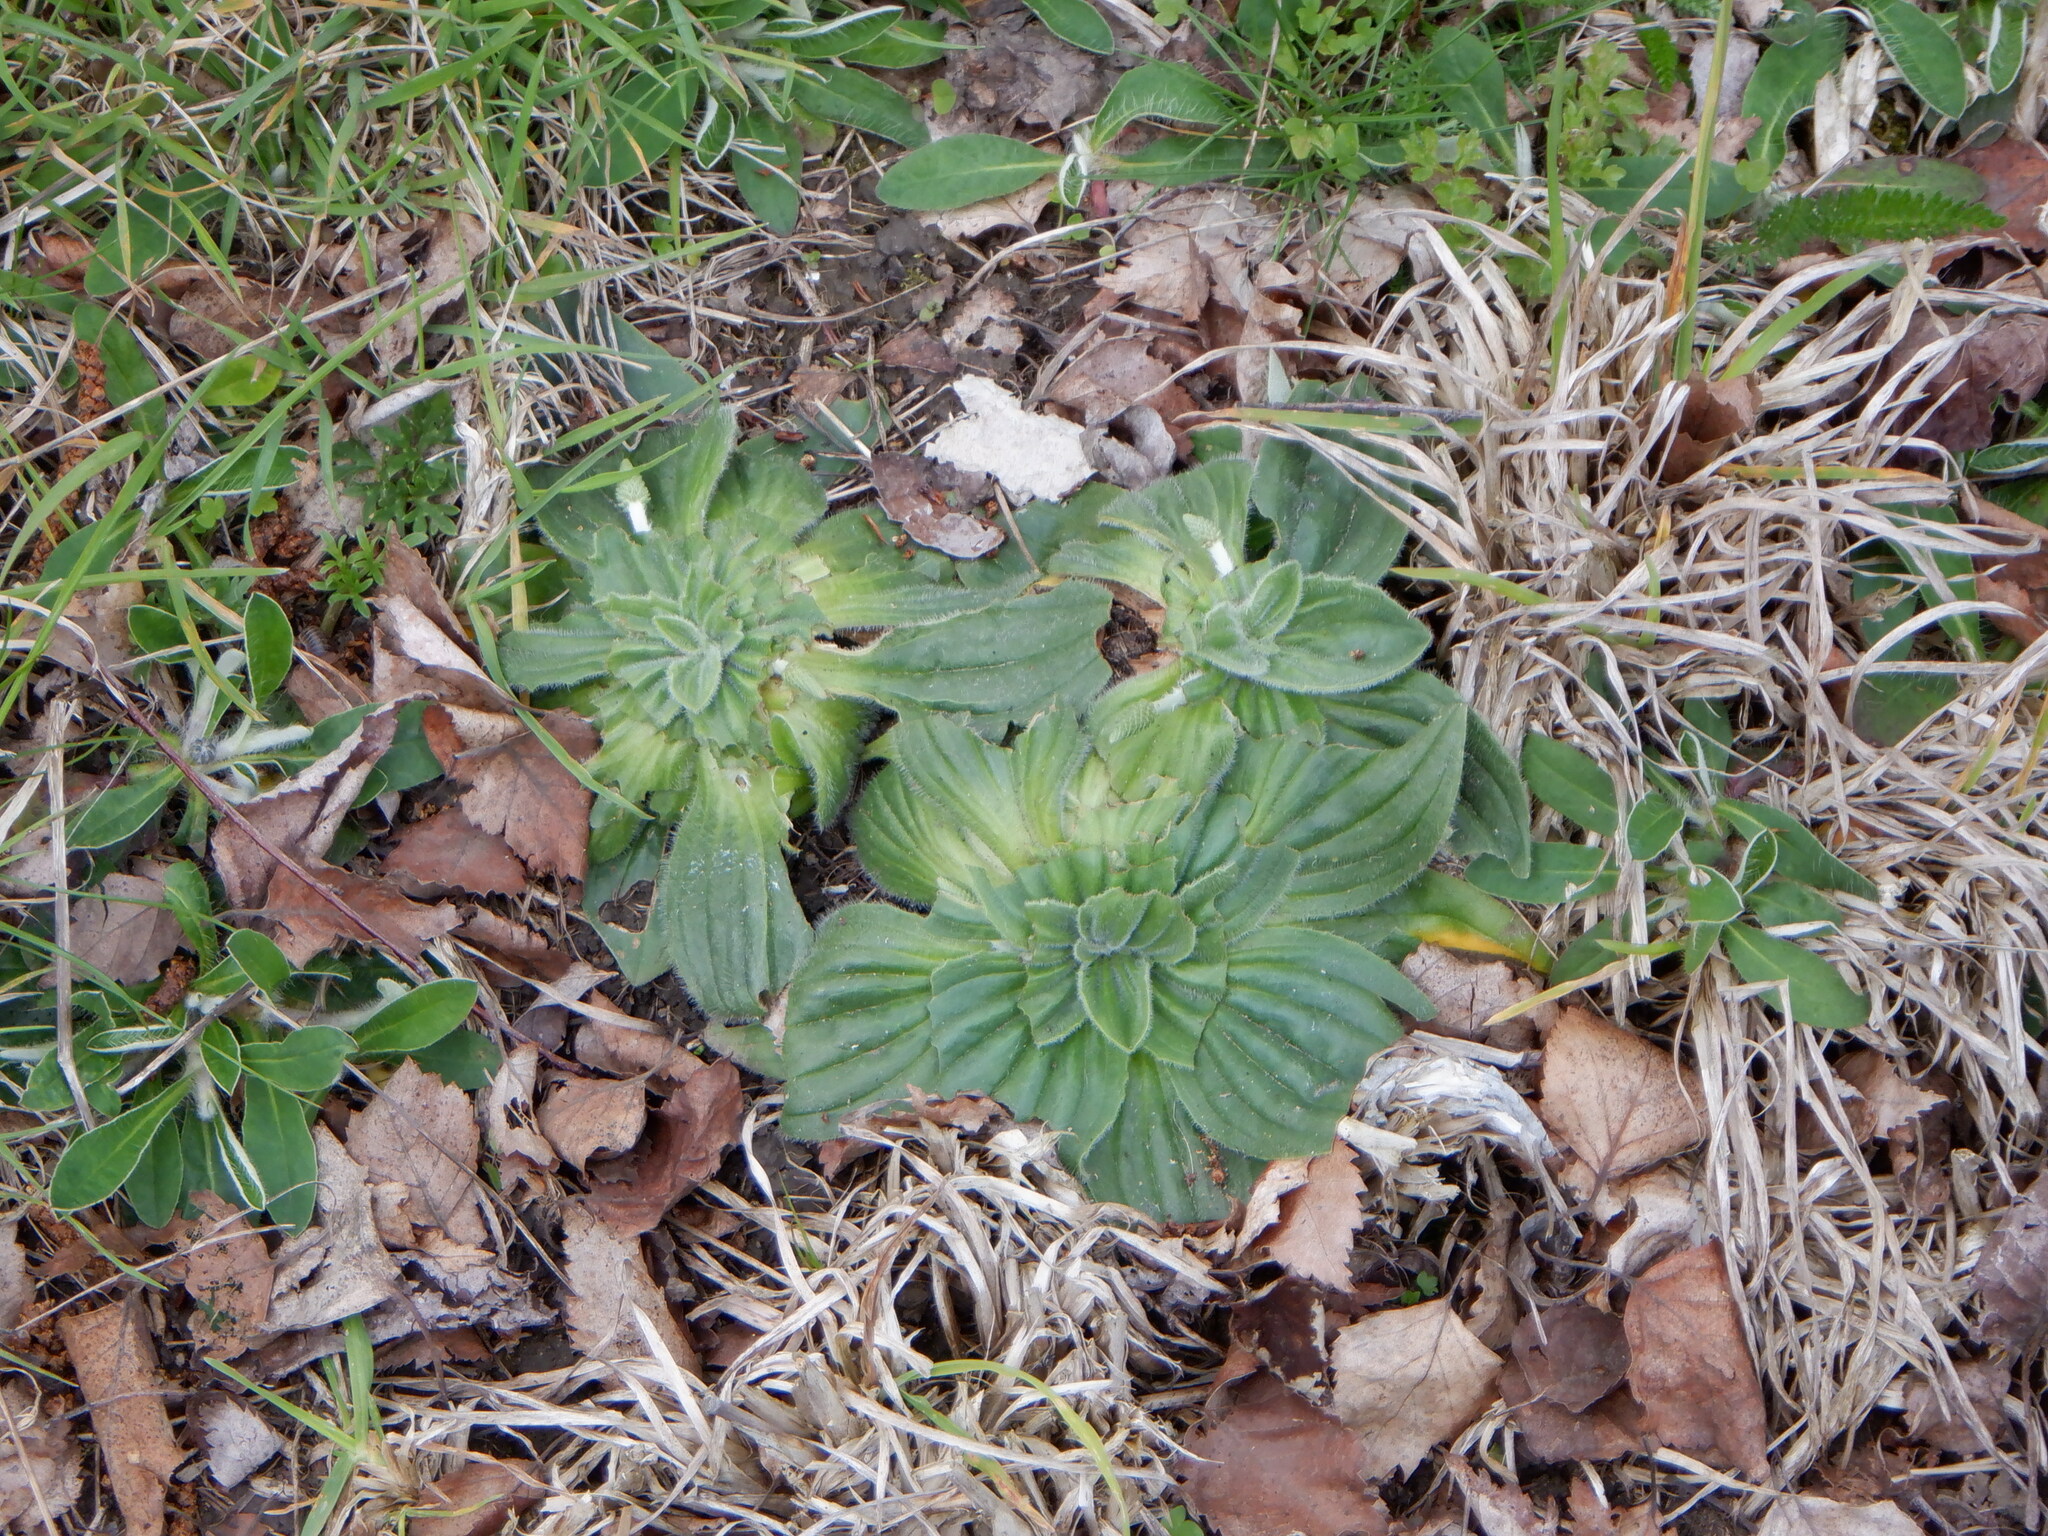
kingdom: Plantae
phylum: Tracheophyta
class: Magnoliopsida
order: Lamiales
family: Plantaginaceae
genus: Plantago
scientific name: Plantago media
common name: Hoary plantain
